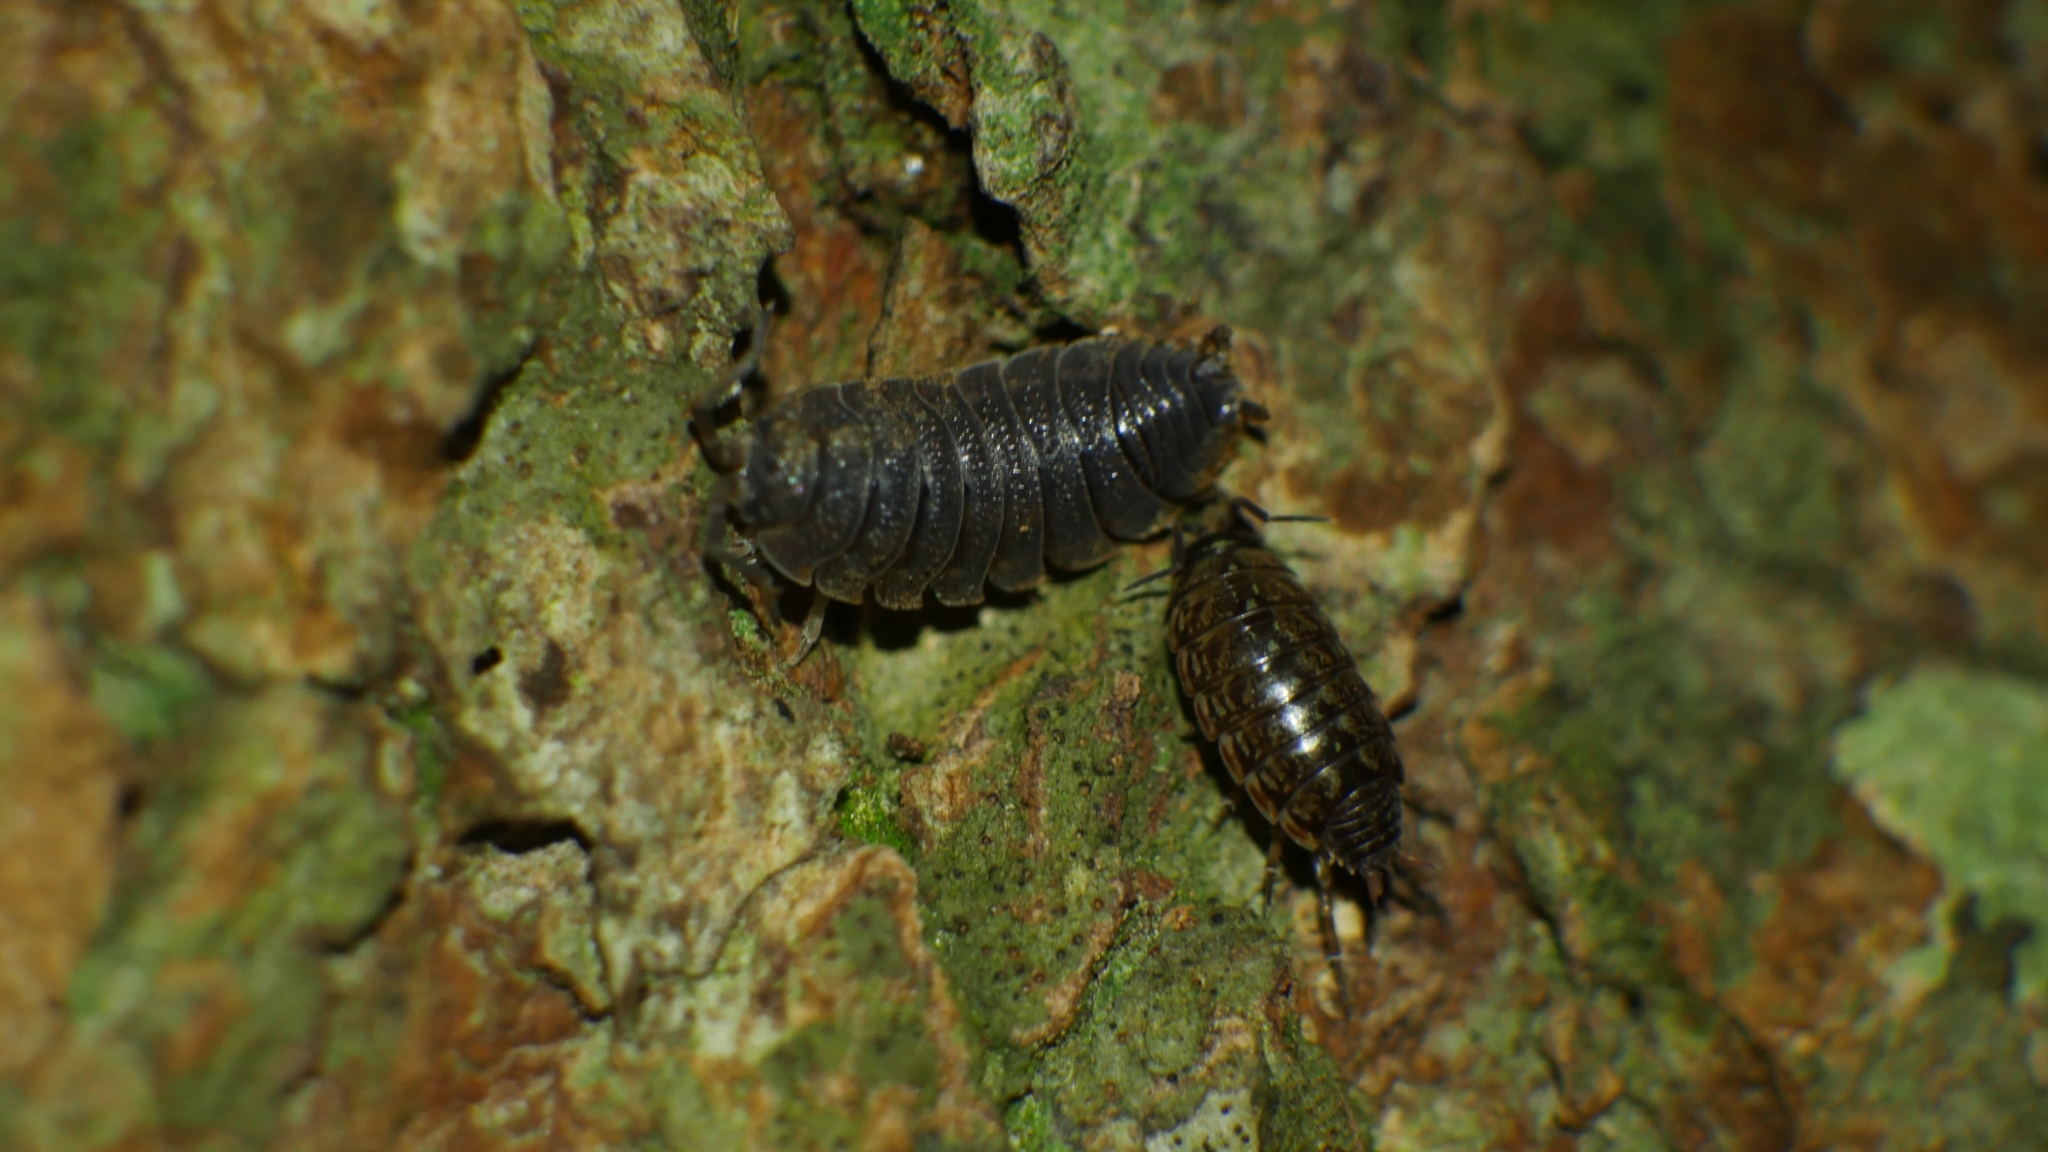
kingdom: Animalia
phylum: Arthropoda
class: Malacostraca
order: Isopoda
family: Porcellionidae
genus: Porcellio
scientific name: Porcellio scaber
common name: Common rough woodlouse
